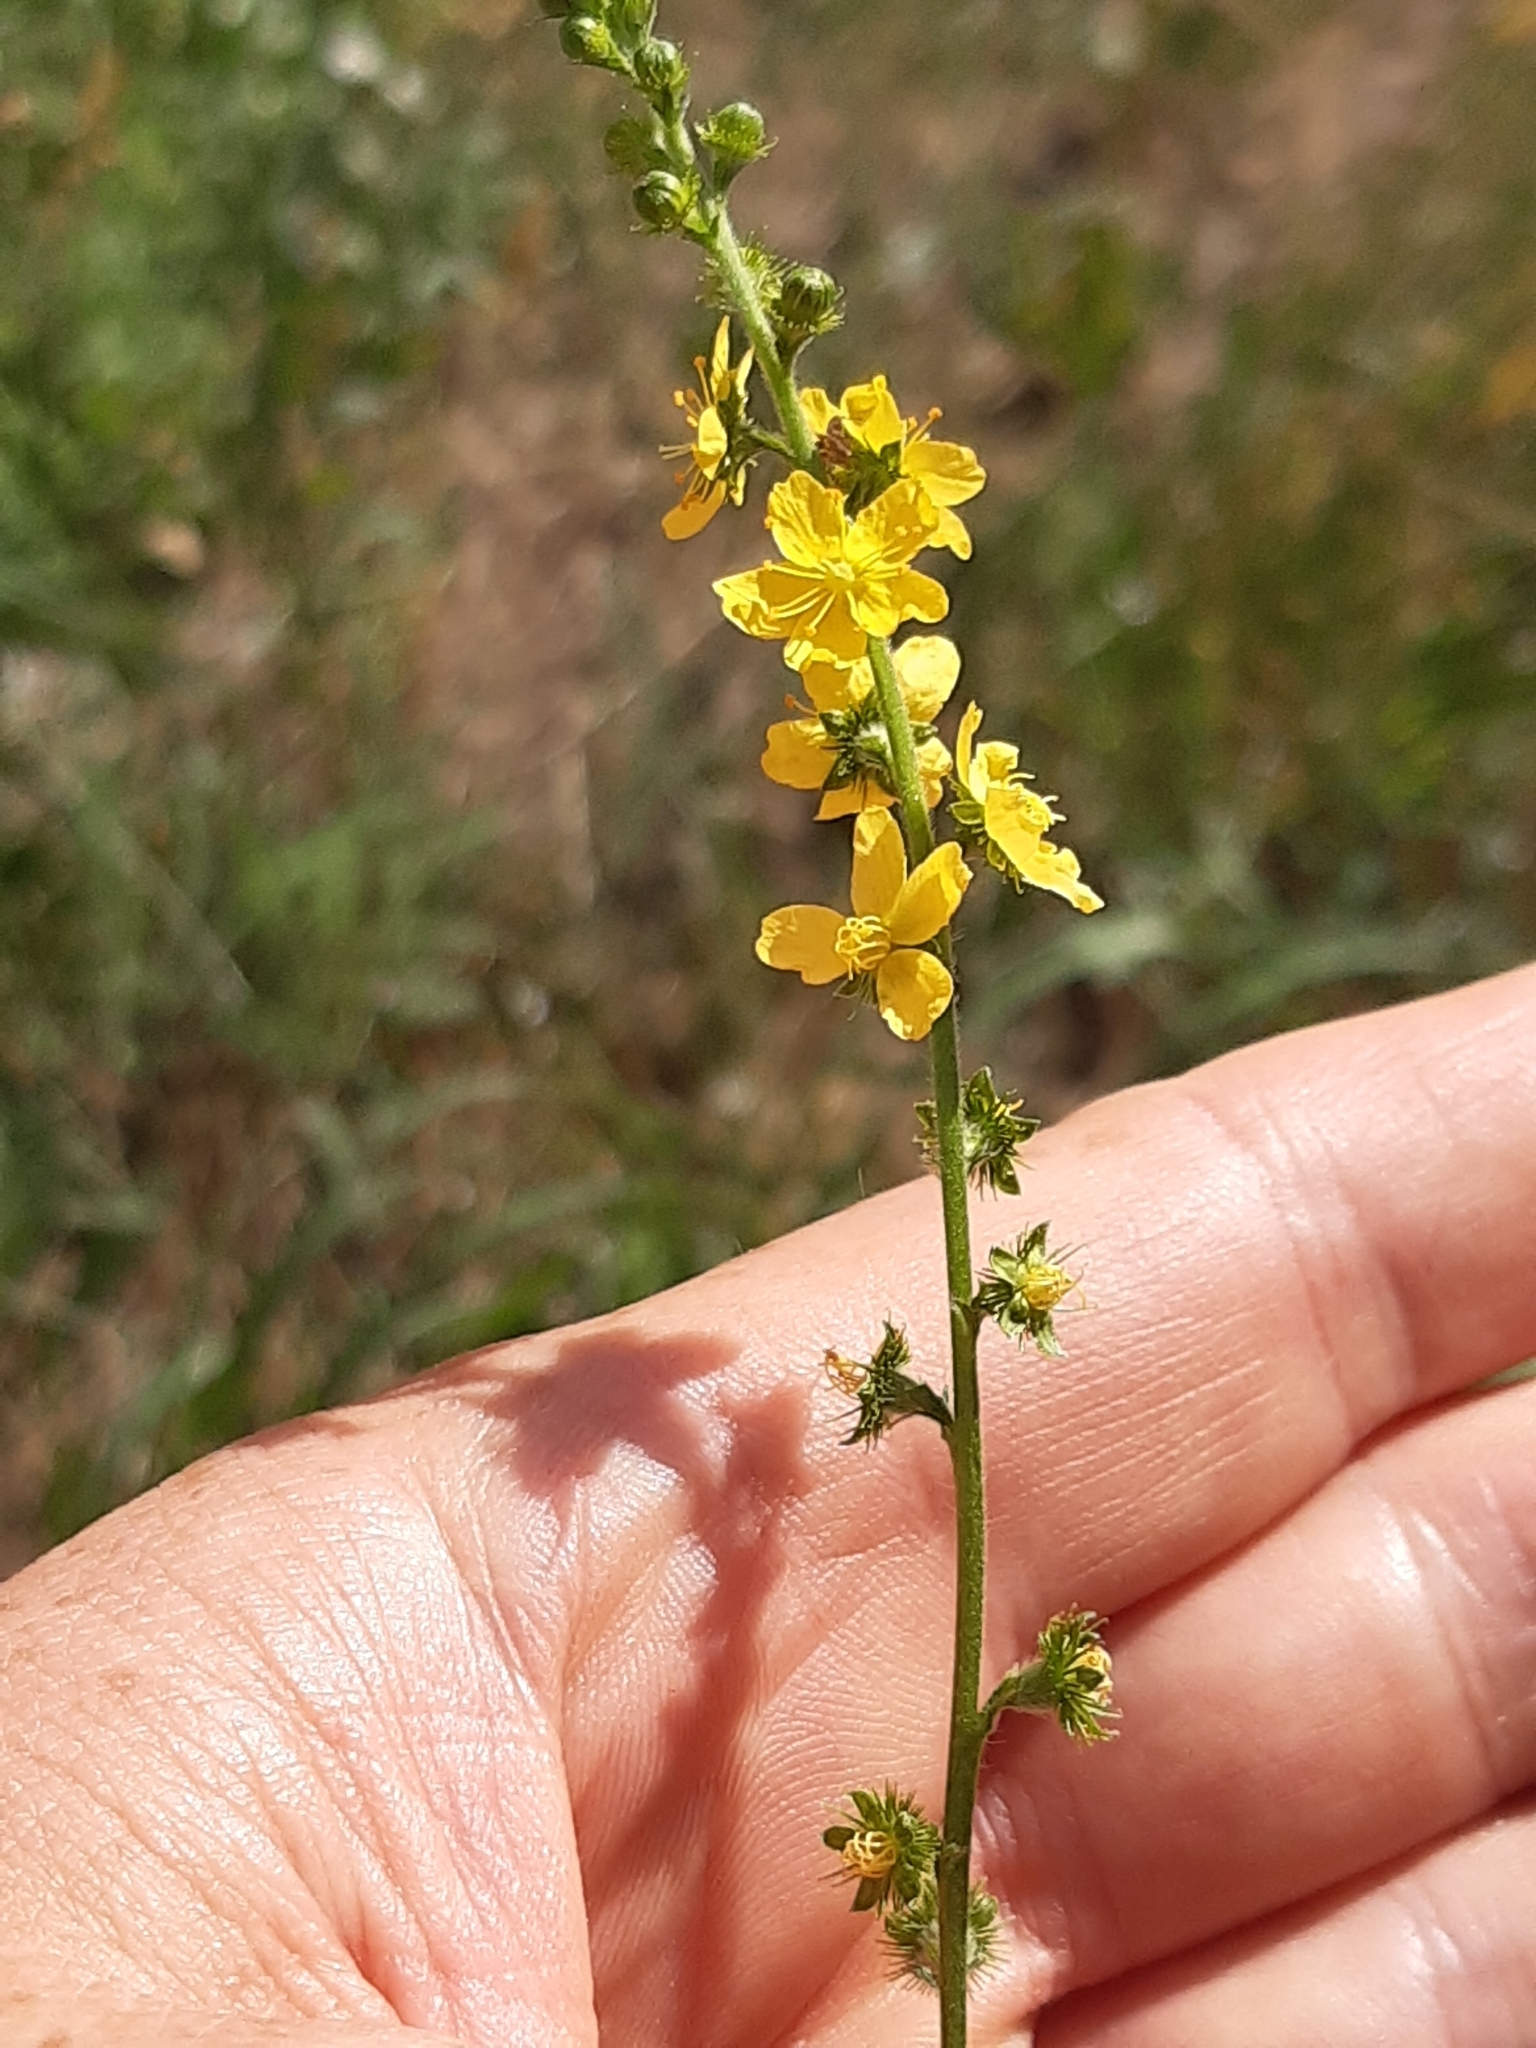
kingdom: Plantae
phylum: Tracheophyta
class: Magnoliopsida
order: Rosales
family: Rosaceae
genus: Agrimonia
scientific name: Agrimonia eupatoria
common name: Agrimony
